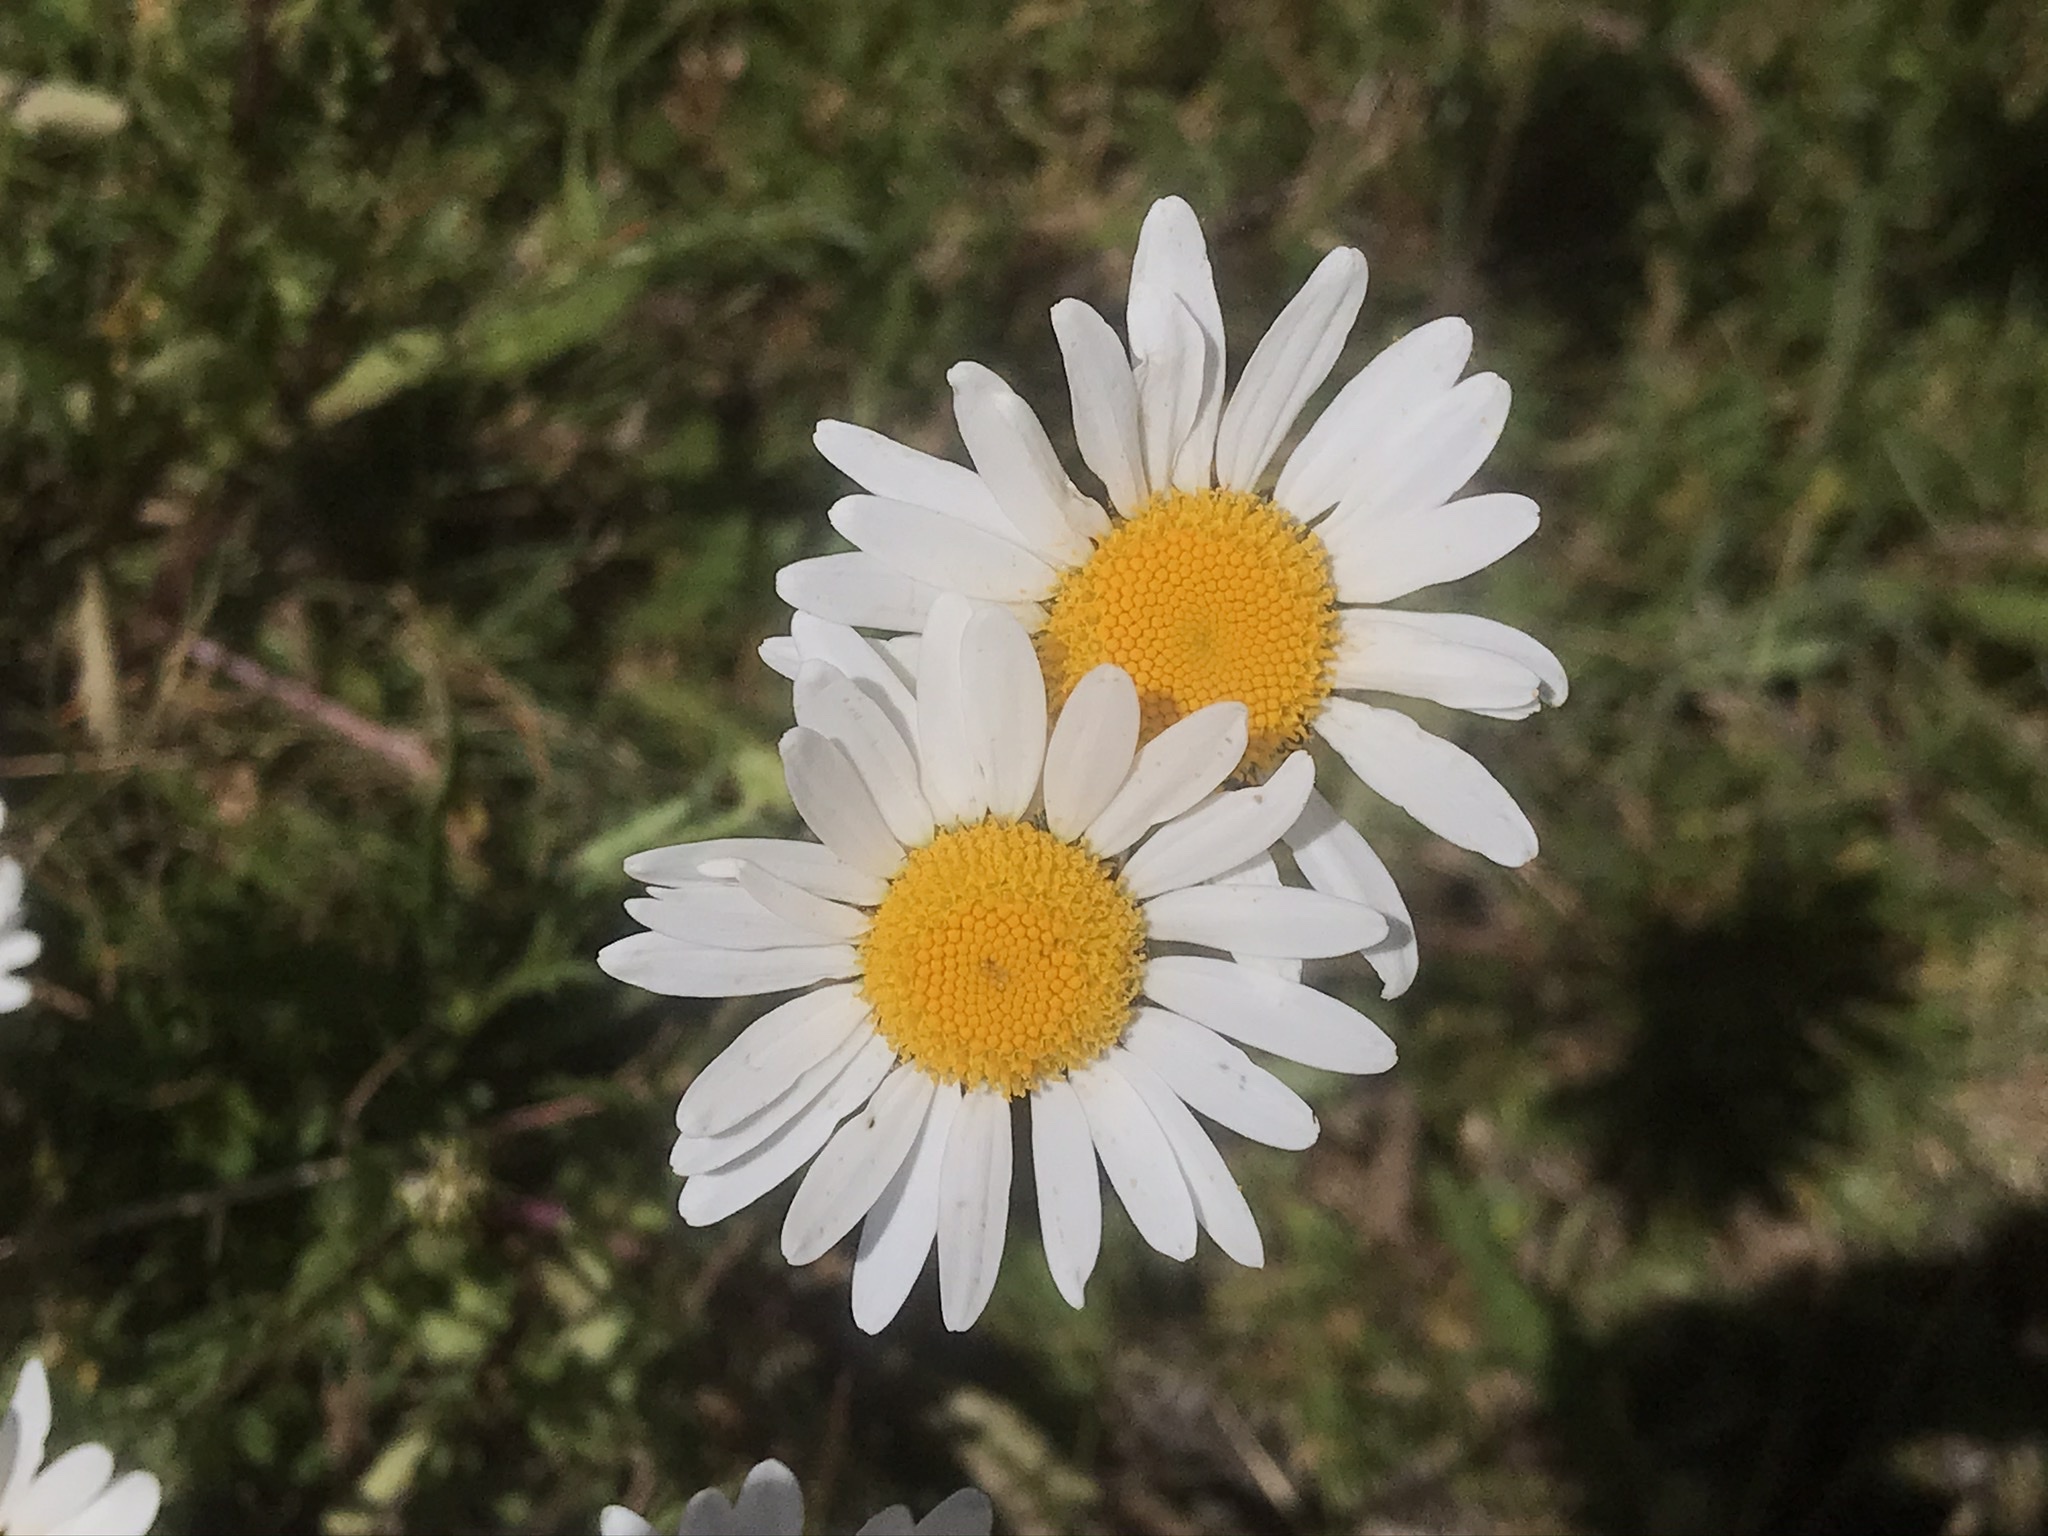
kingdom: Plantae
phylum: Tracheophyta
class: Magnoliopsida
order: Asterales
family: Asteraceae
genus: Leucanthemum
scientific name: Leucanthemum vulgare
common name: Oxeye daisy
